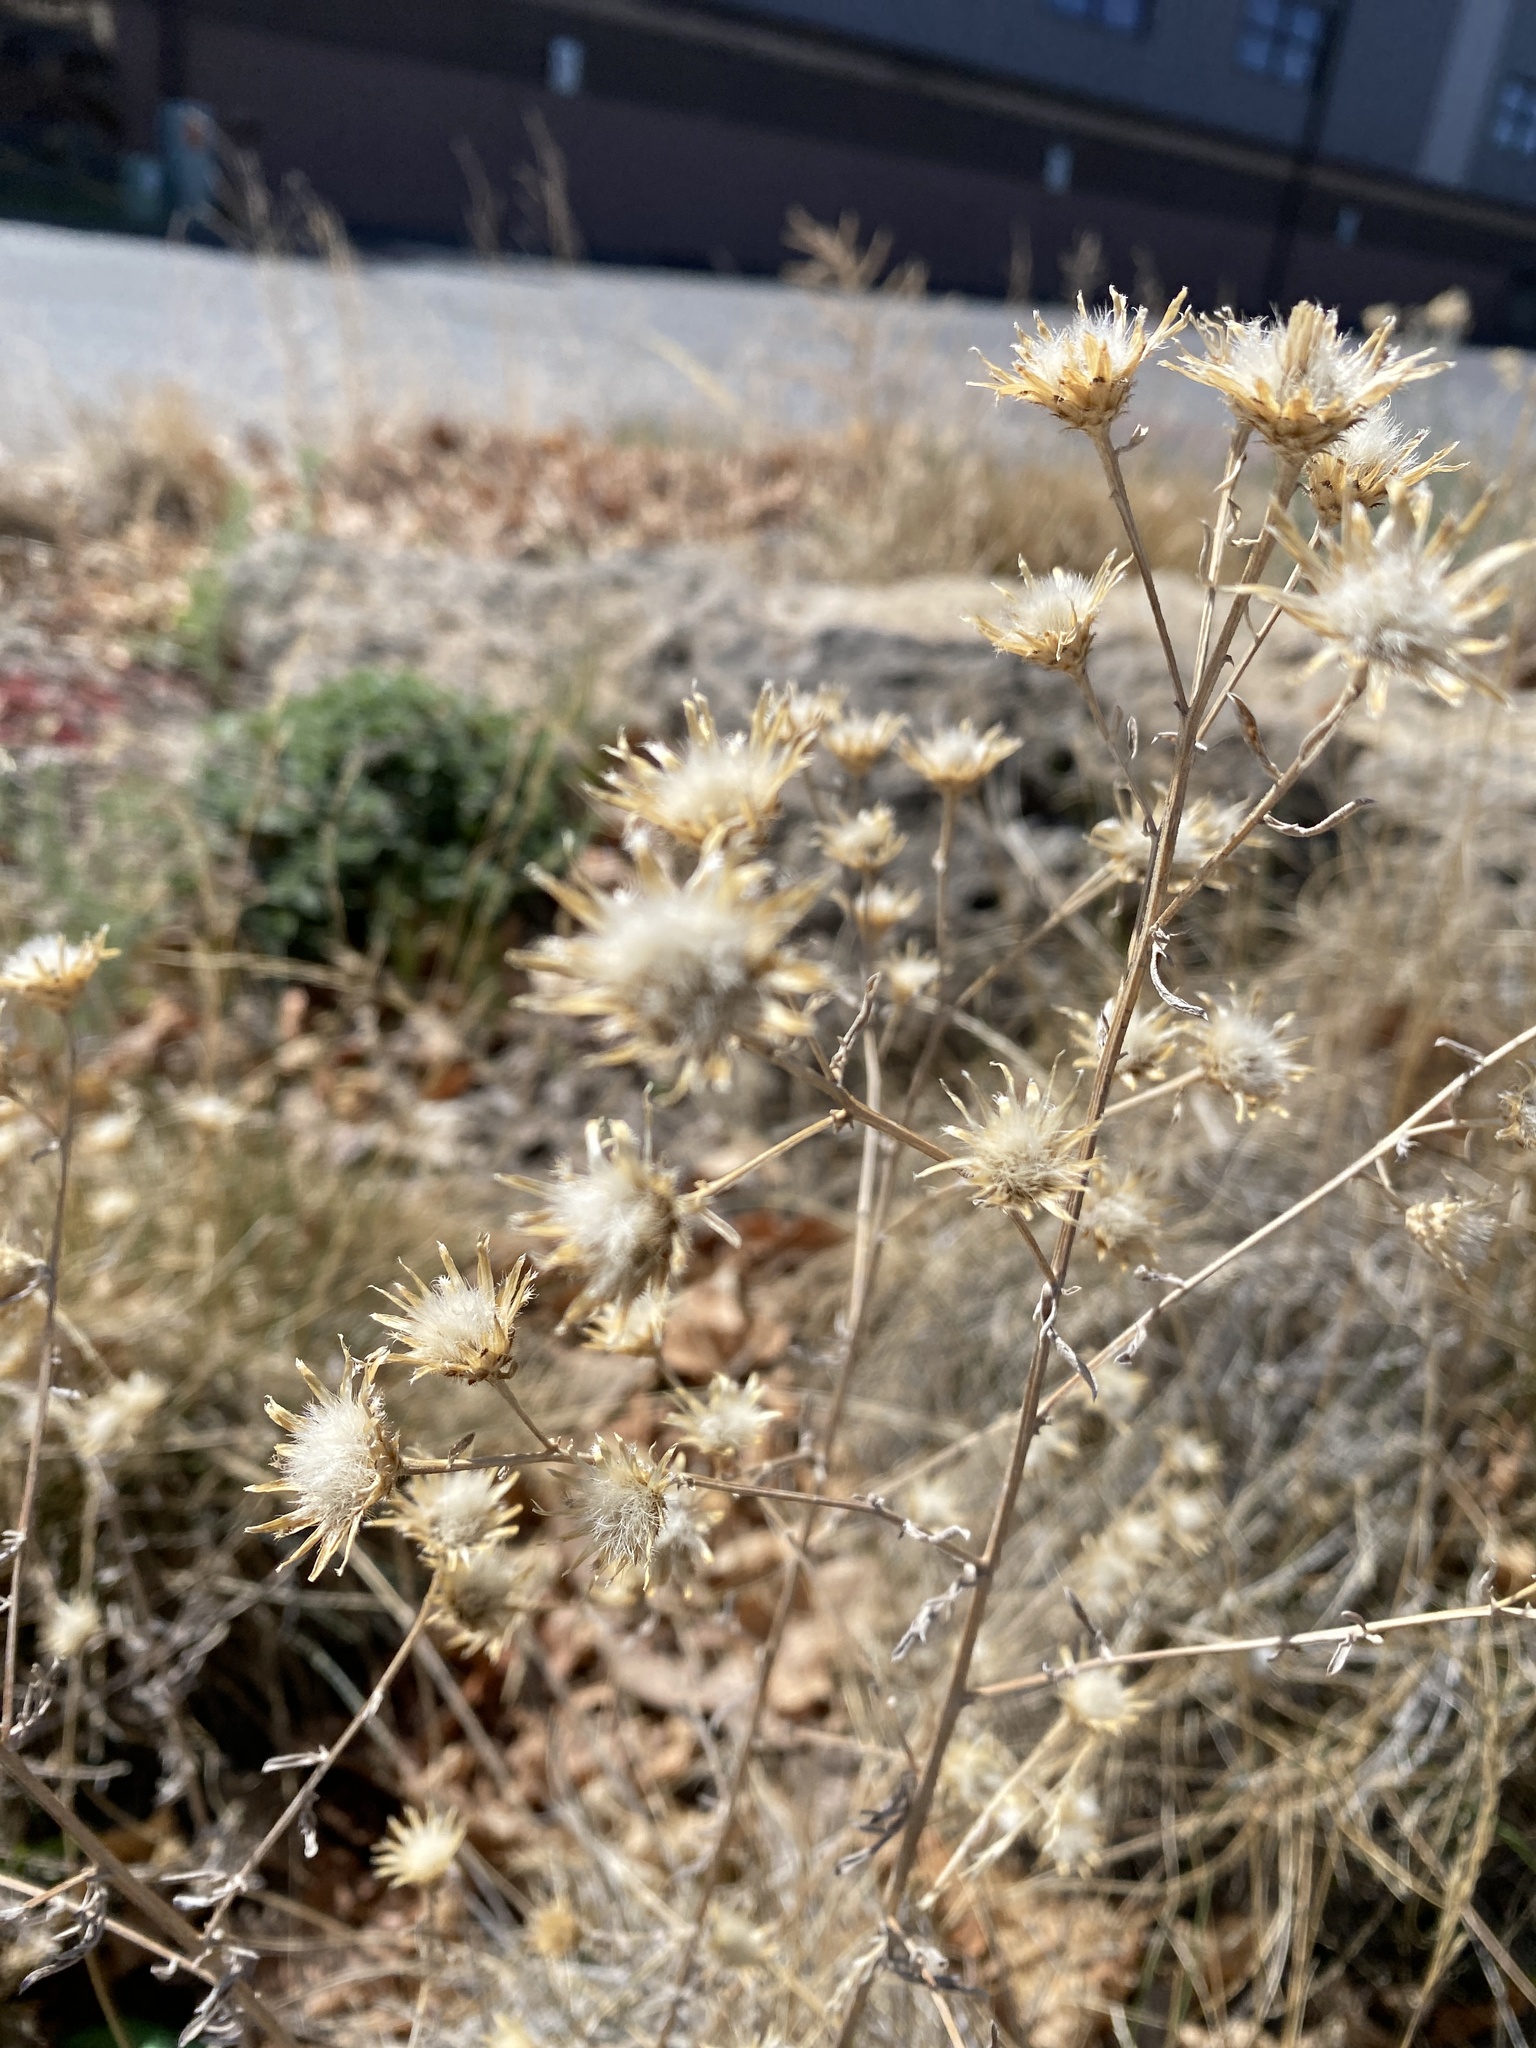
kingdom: Plantae
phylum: Tracheophyta
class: Magnoliopsida
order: Asterales
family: Asteraceae
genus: Centaurea
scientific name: Centaurea stoebe
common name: Spotted knapweed
